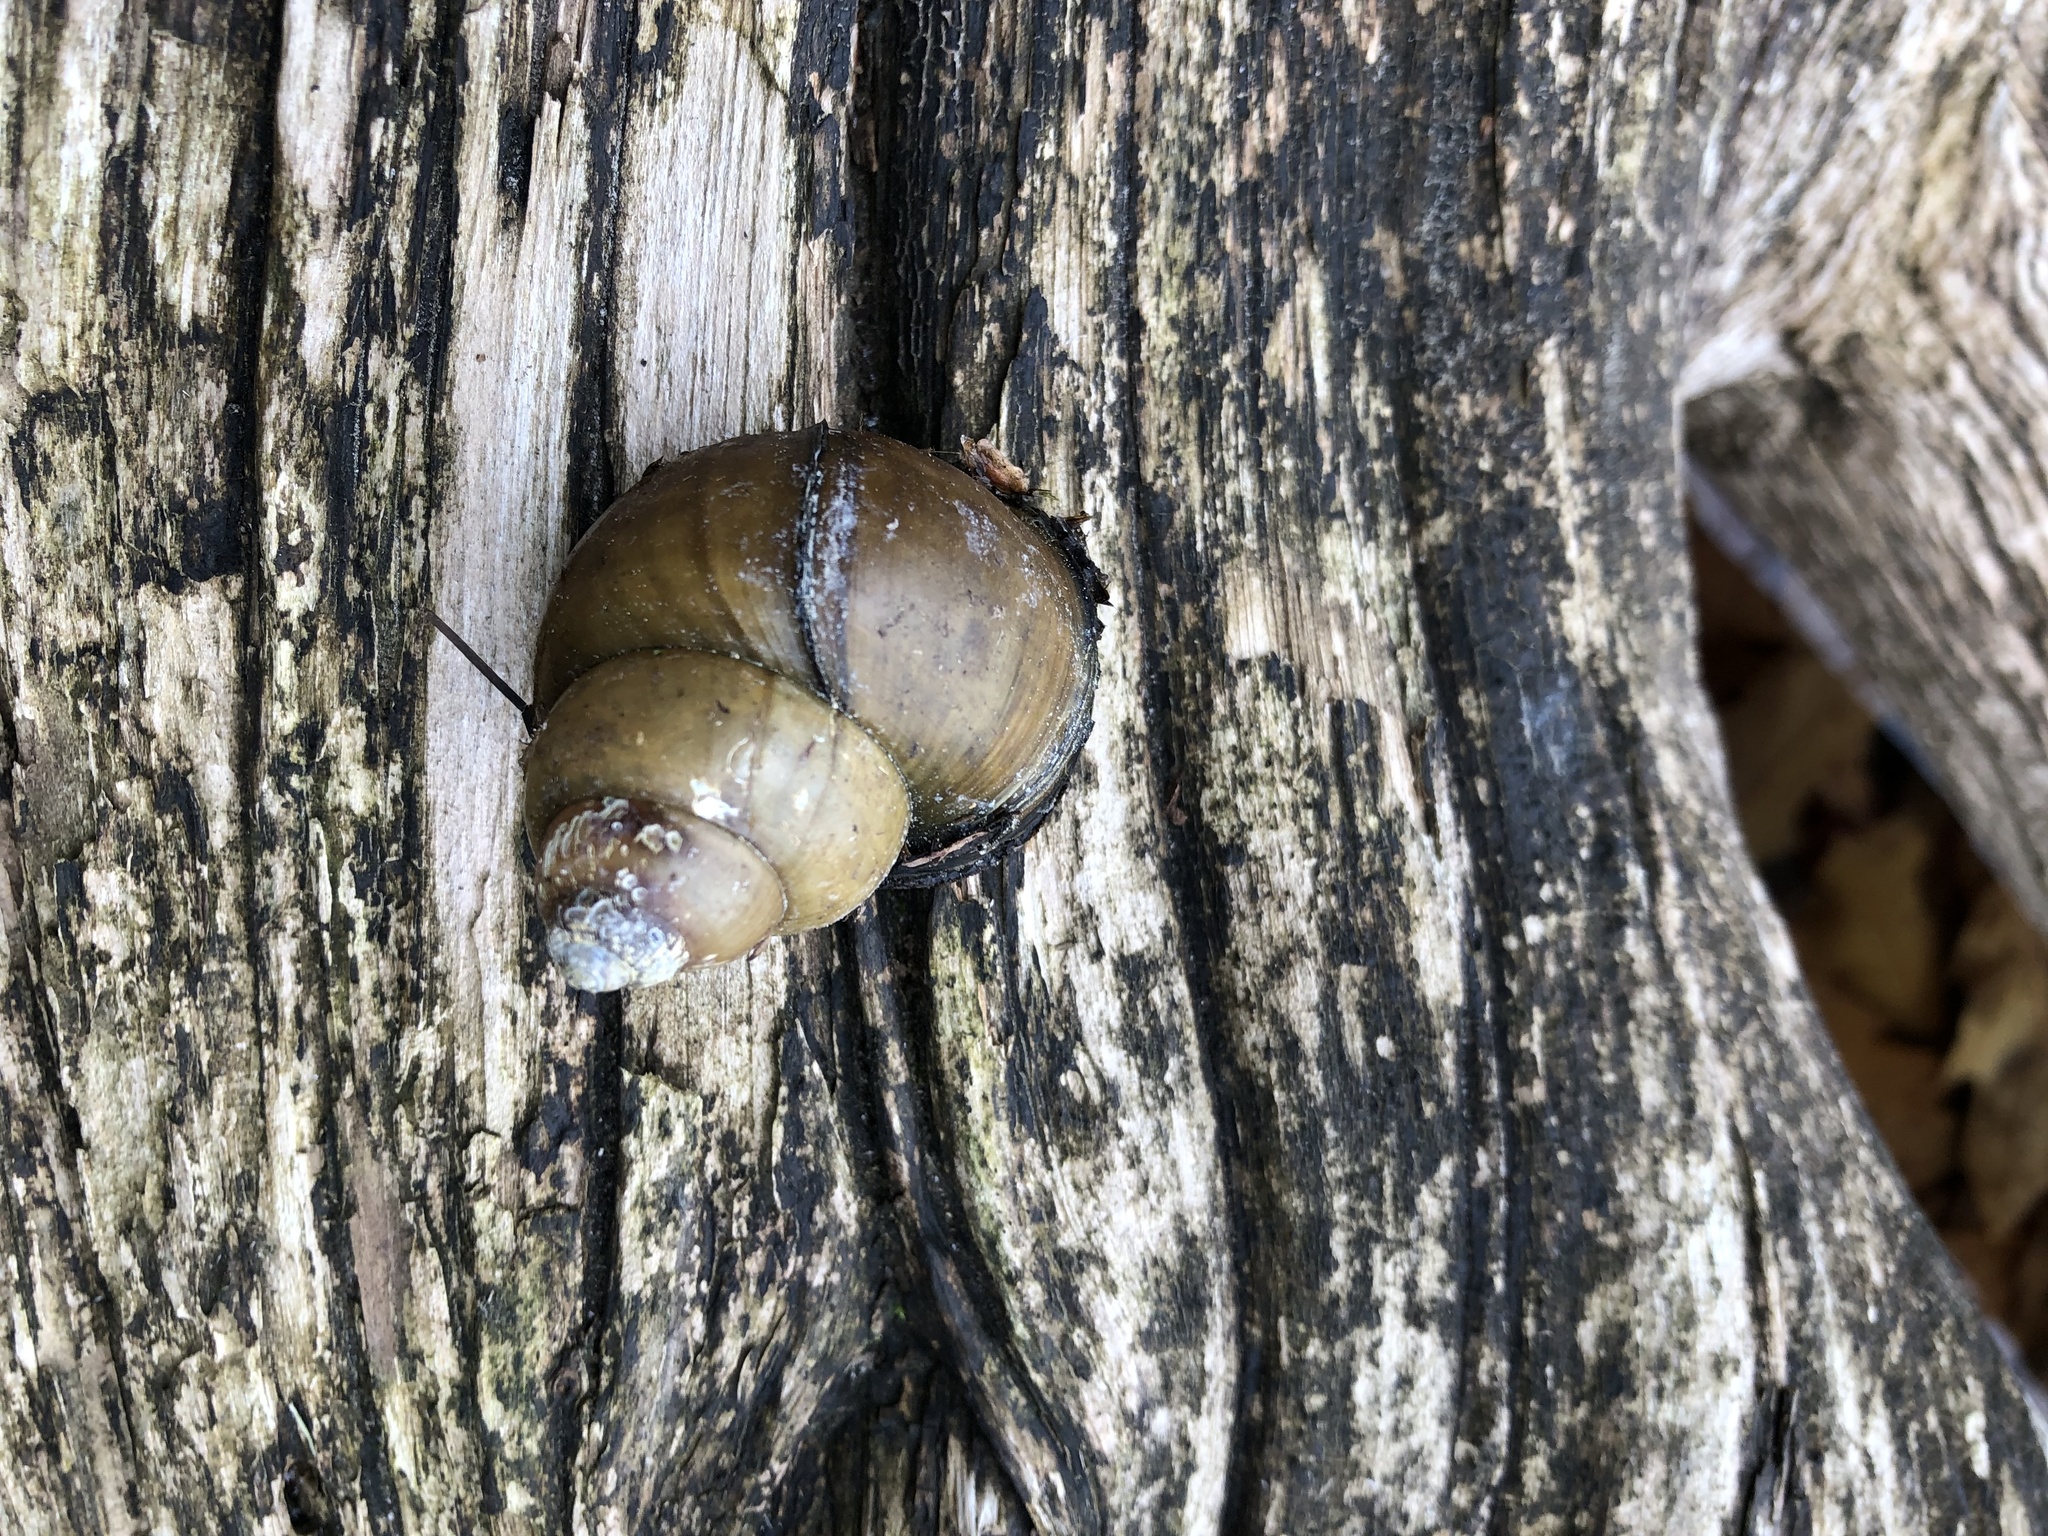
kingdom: Animalia
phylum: Mollusca
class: Gastropoda
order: Architaenioglossa
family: Viviparidae
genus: Cipangopaludina
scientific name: Cipangopaludina chinensis
